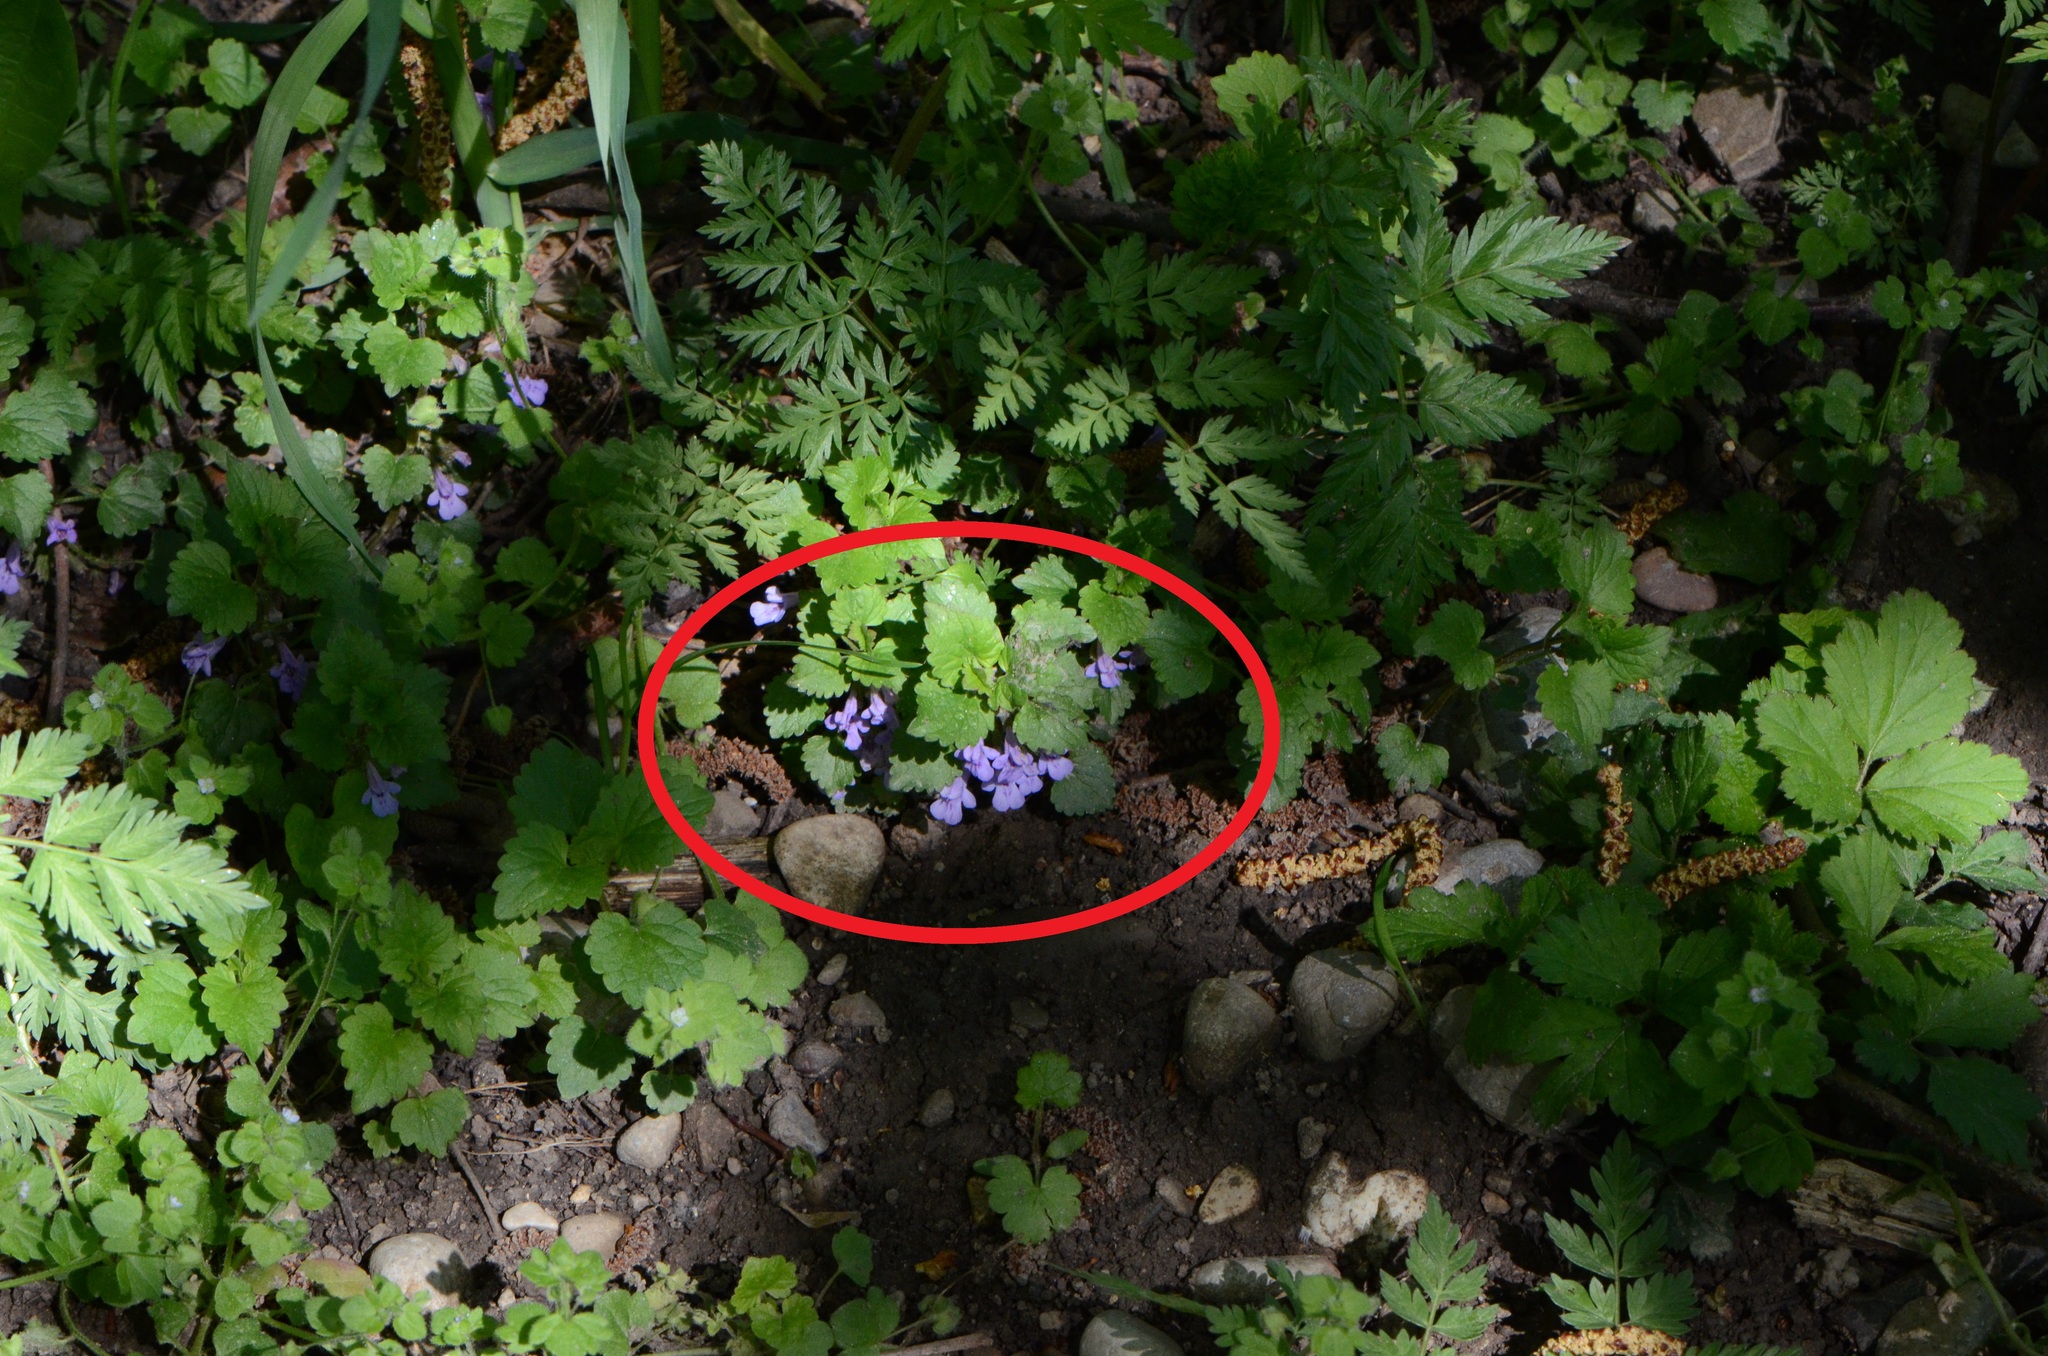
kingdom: Plantae
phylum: Tracheophyta
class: Magnoliopsida
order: Lamiales
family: Lamiaceae
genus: Glechoma
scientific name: Glechoma hederacea
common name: Ground ivy
